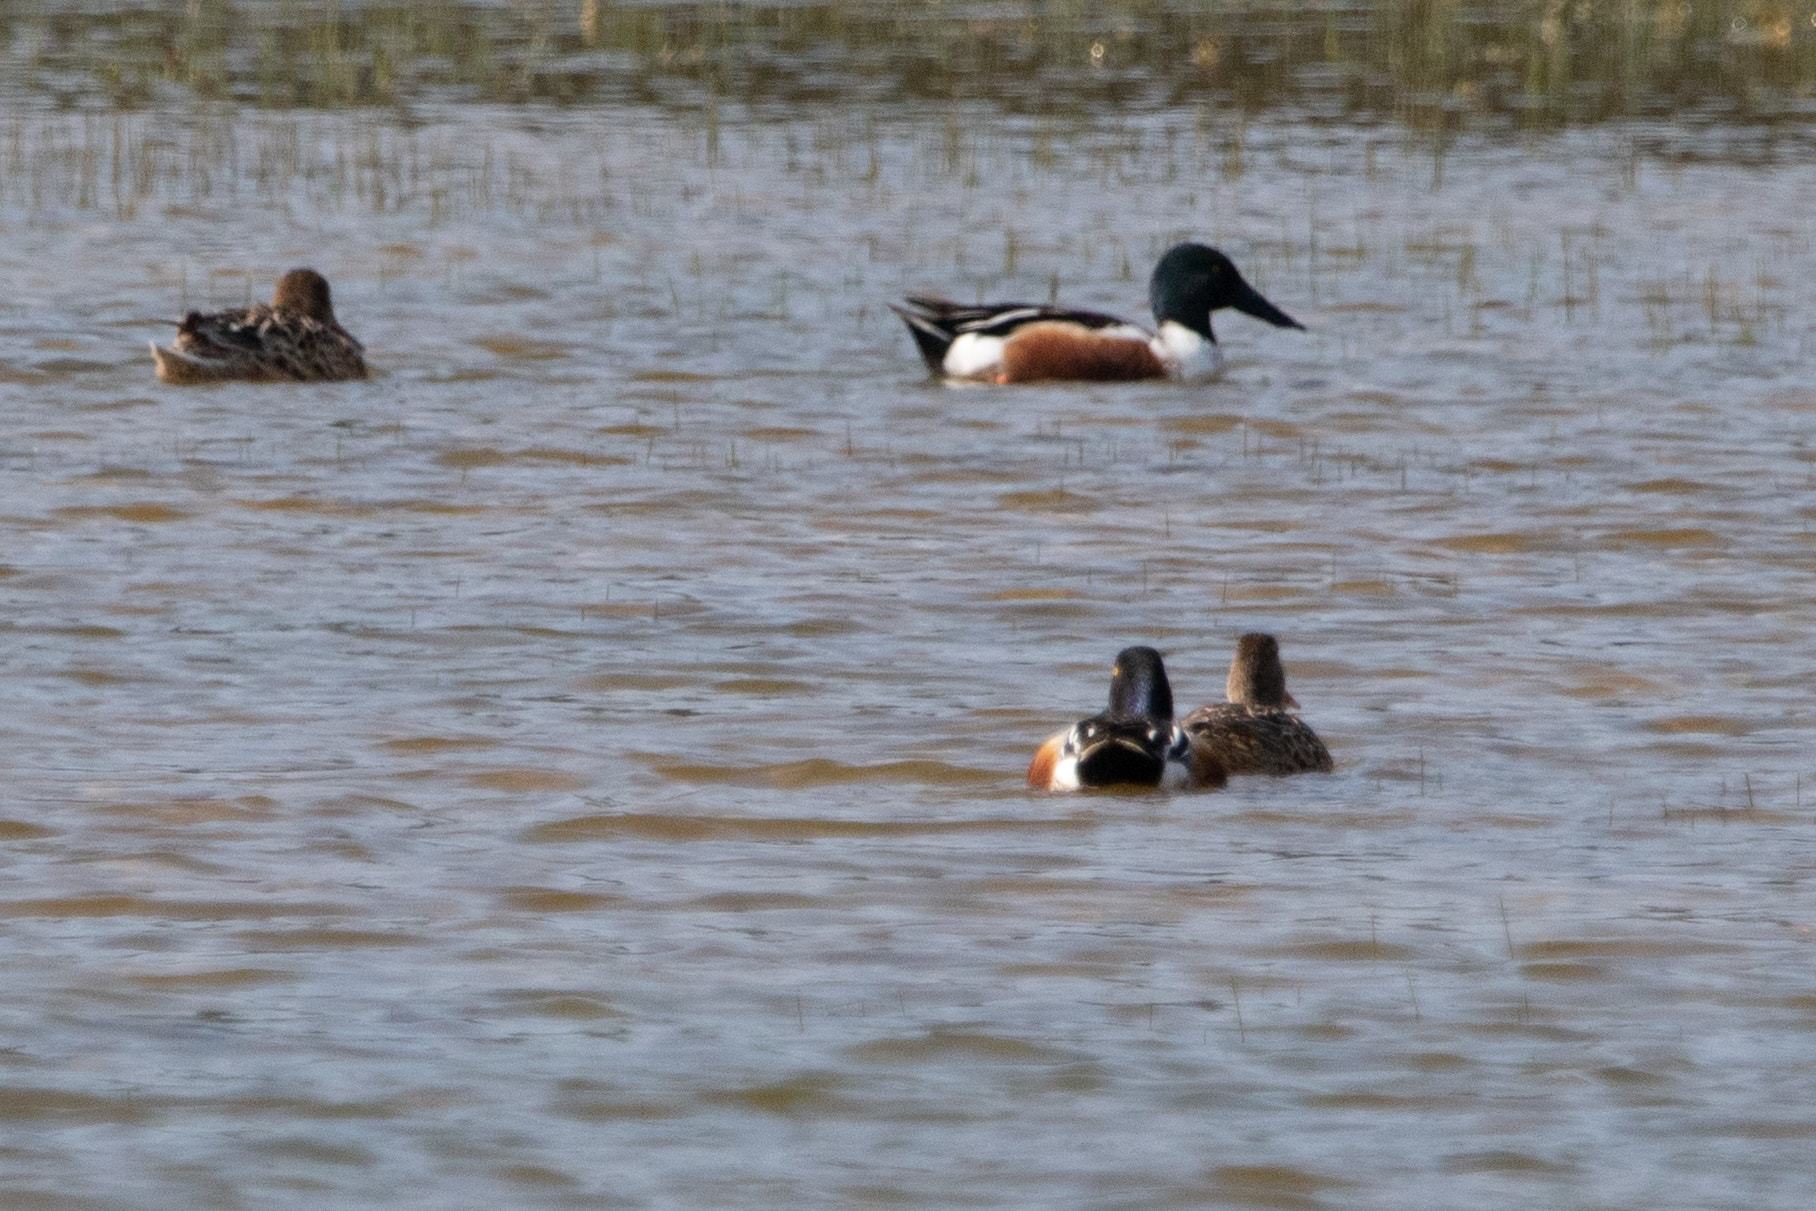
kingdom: Animalia
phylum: Chordata
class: Aves
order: Anseriformes
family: Anatidae
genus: Spatula
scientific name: Spatula clypeata
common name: Northern shoveler
